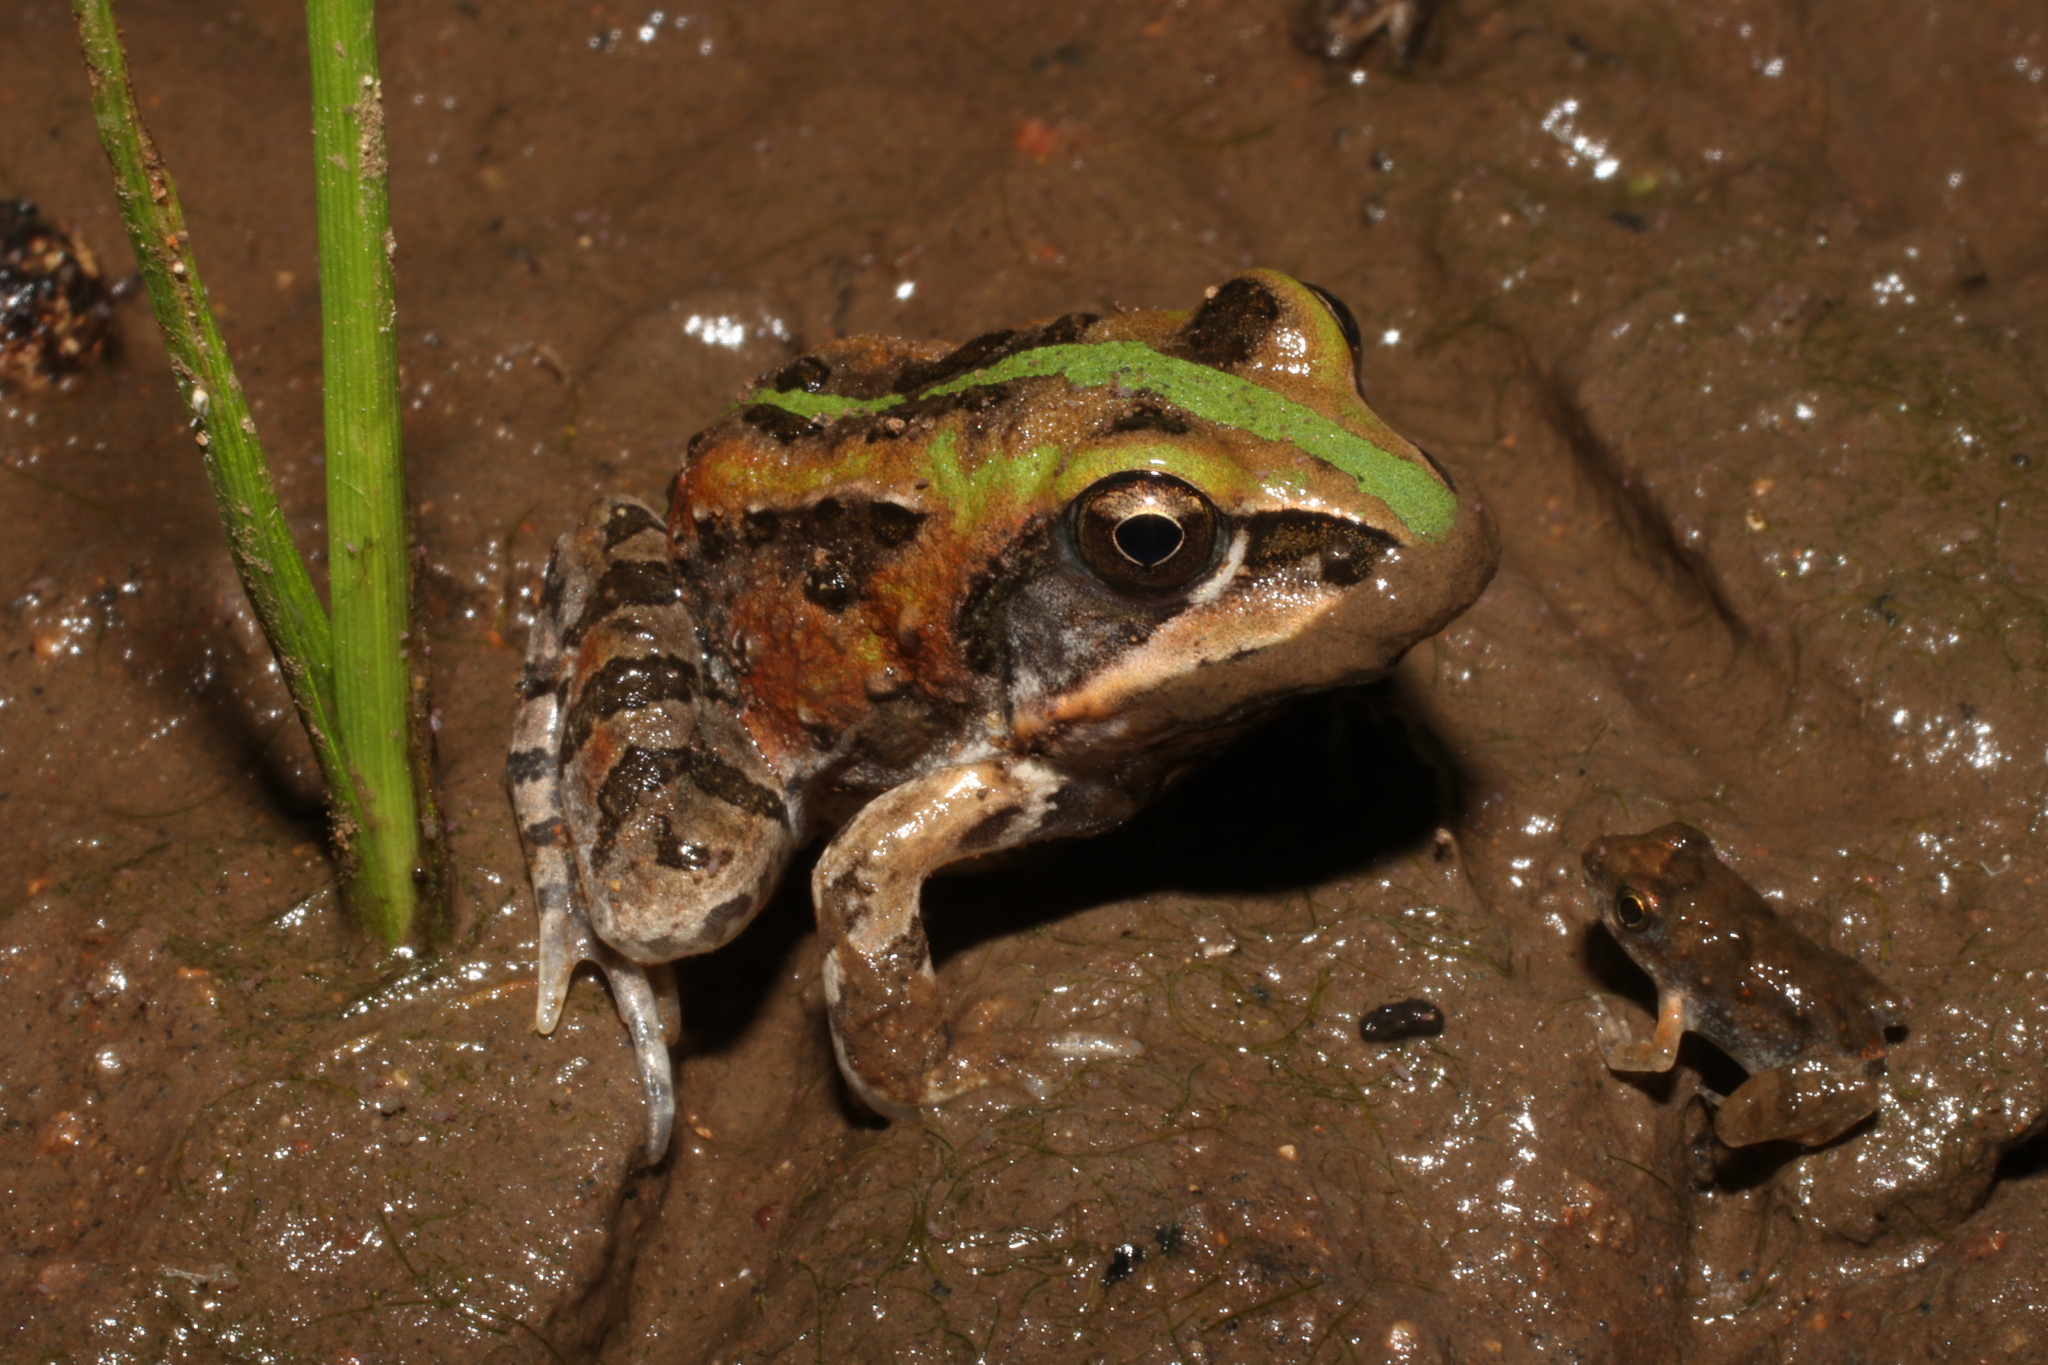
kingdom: Animalia
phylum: Chordata
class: Amphibia
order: Anura
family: Ptychadenidae
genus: Hildebrandtia
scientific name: Hildebrandtia ornata
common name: Ornate frog
